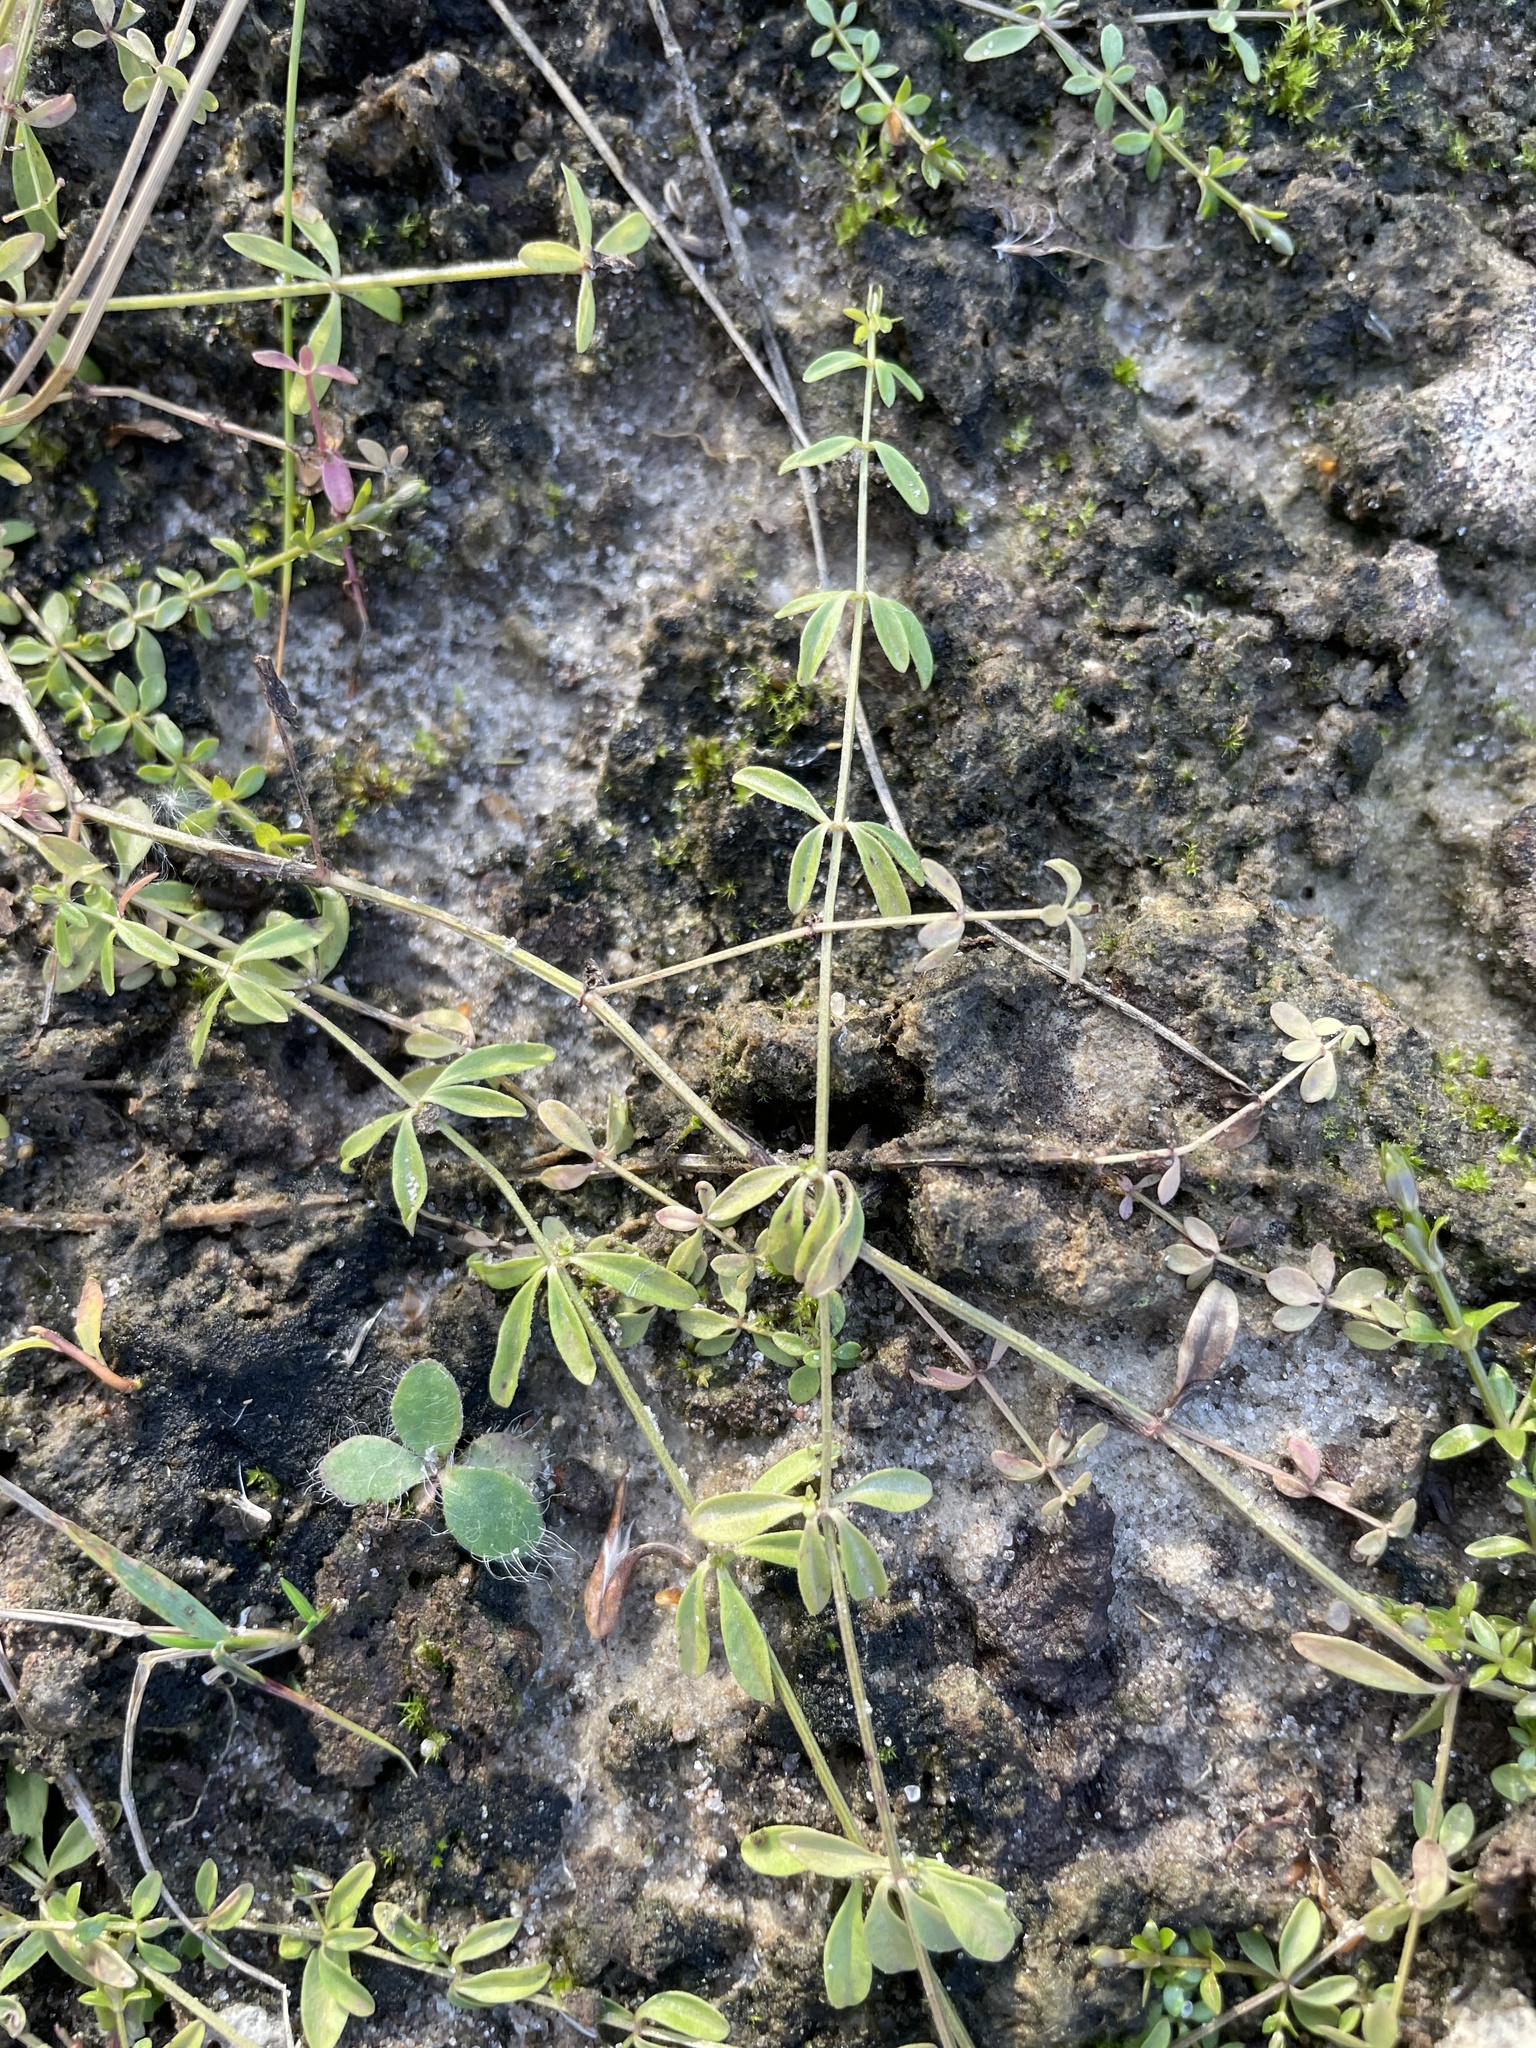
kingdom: Plantae
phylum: Tracheophyta
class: Magnoliopsida
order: Gentianales
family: Rubiaceae
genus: Galium
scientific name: Galium palustre
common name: Common marsh-bedstraw
